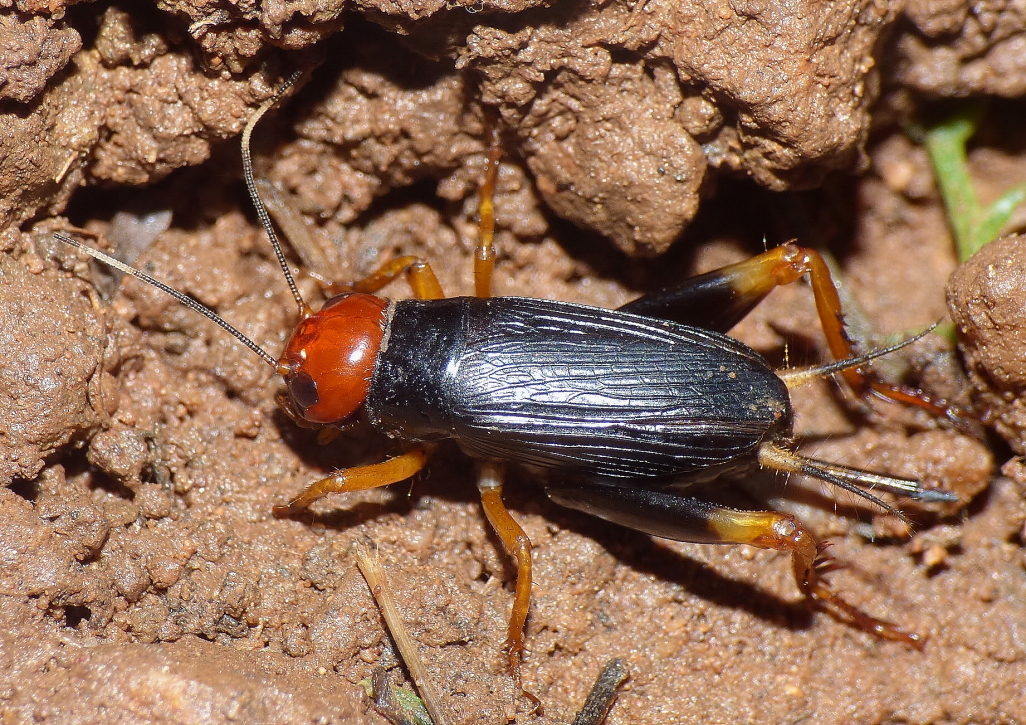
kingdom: Animalia
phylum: Arthropoda
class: Insecta
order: Orthoptera
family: Gryllidae
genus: Phonarellus
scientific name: Phonarellus minor
